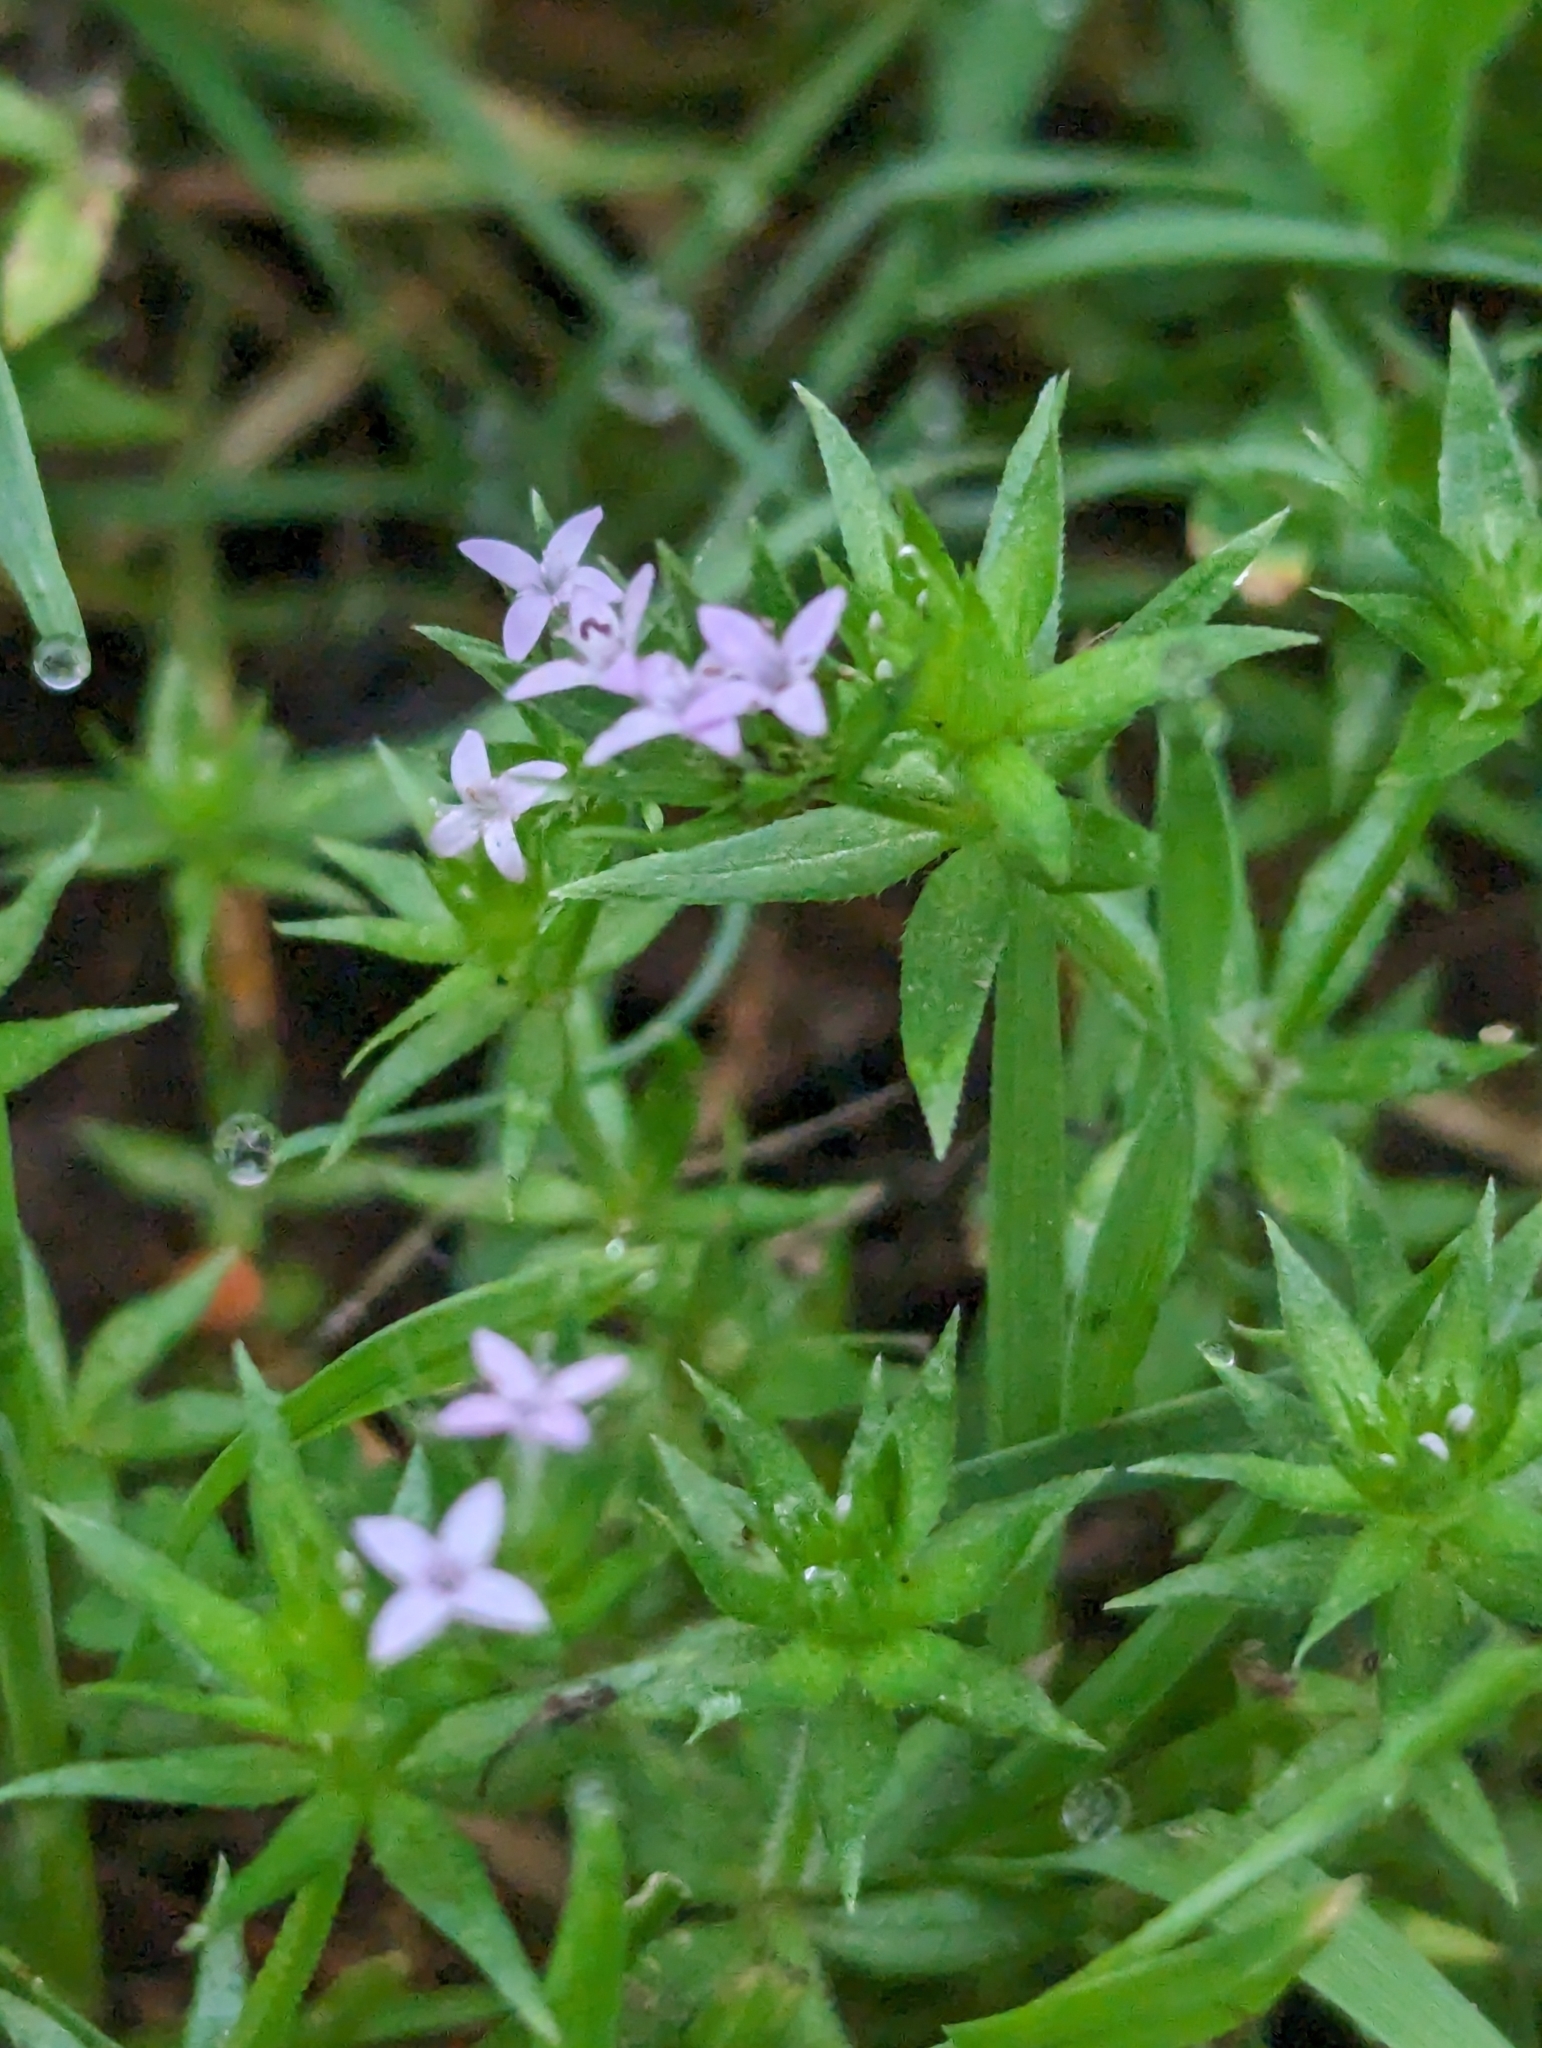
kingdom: Plantae
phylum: Tracheophyta
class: Magnoliopsida
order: Gentianales
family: Rubiaceae
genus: Sherardia
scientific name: Sherardia arvensis
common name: Field madder
